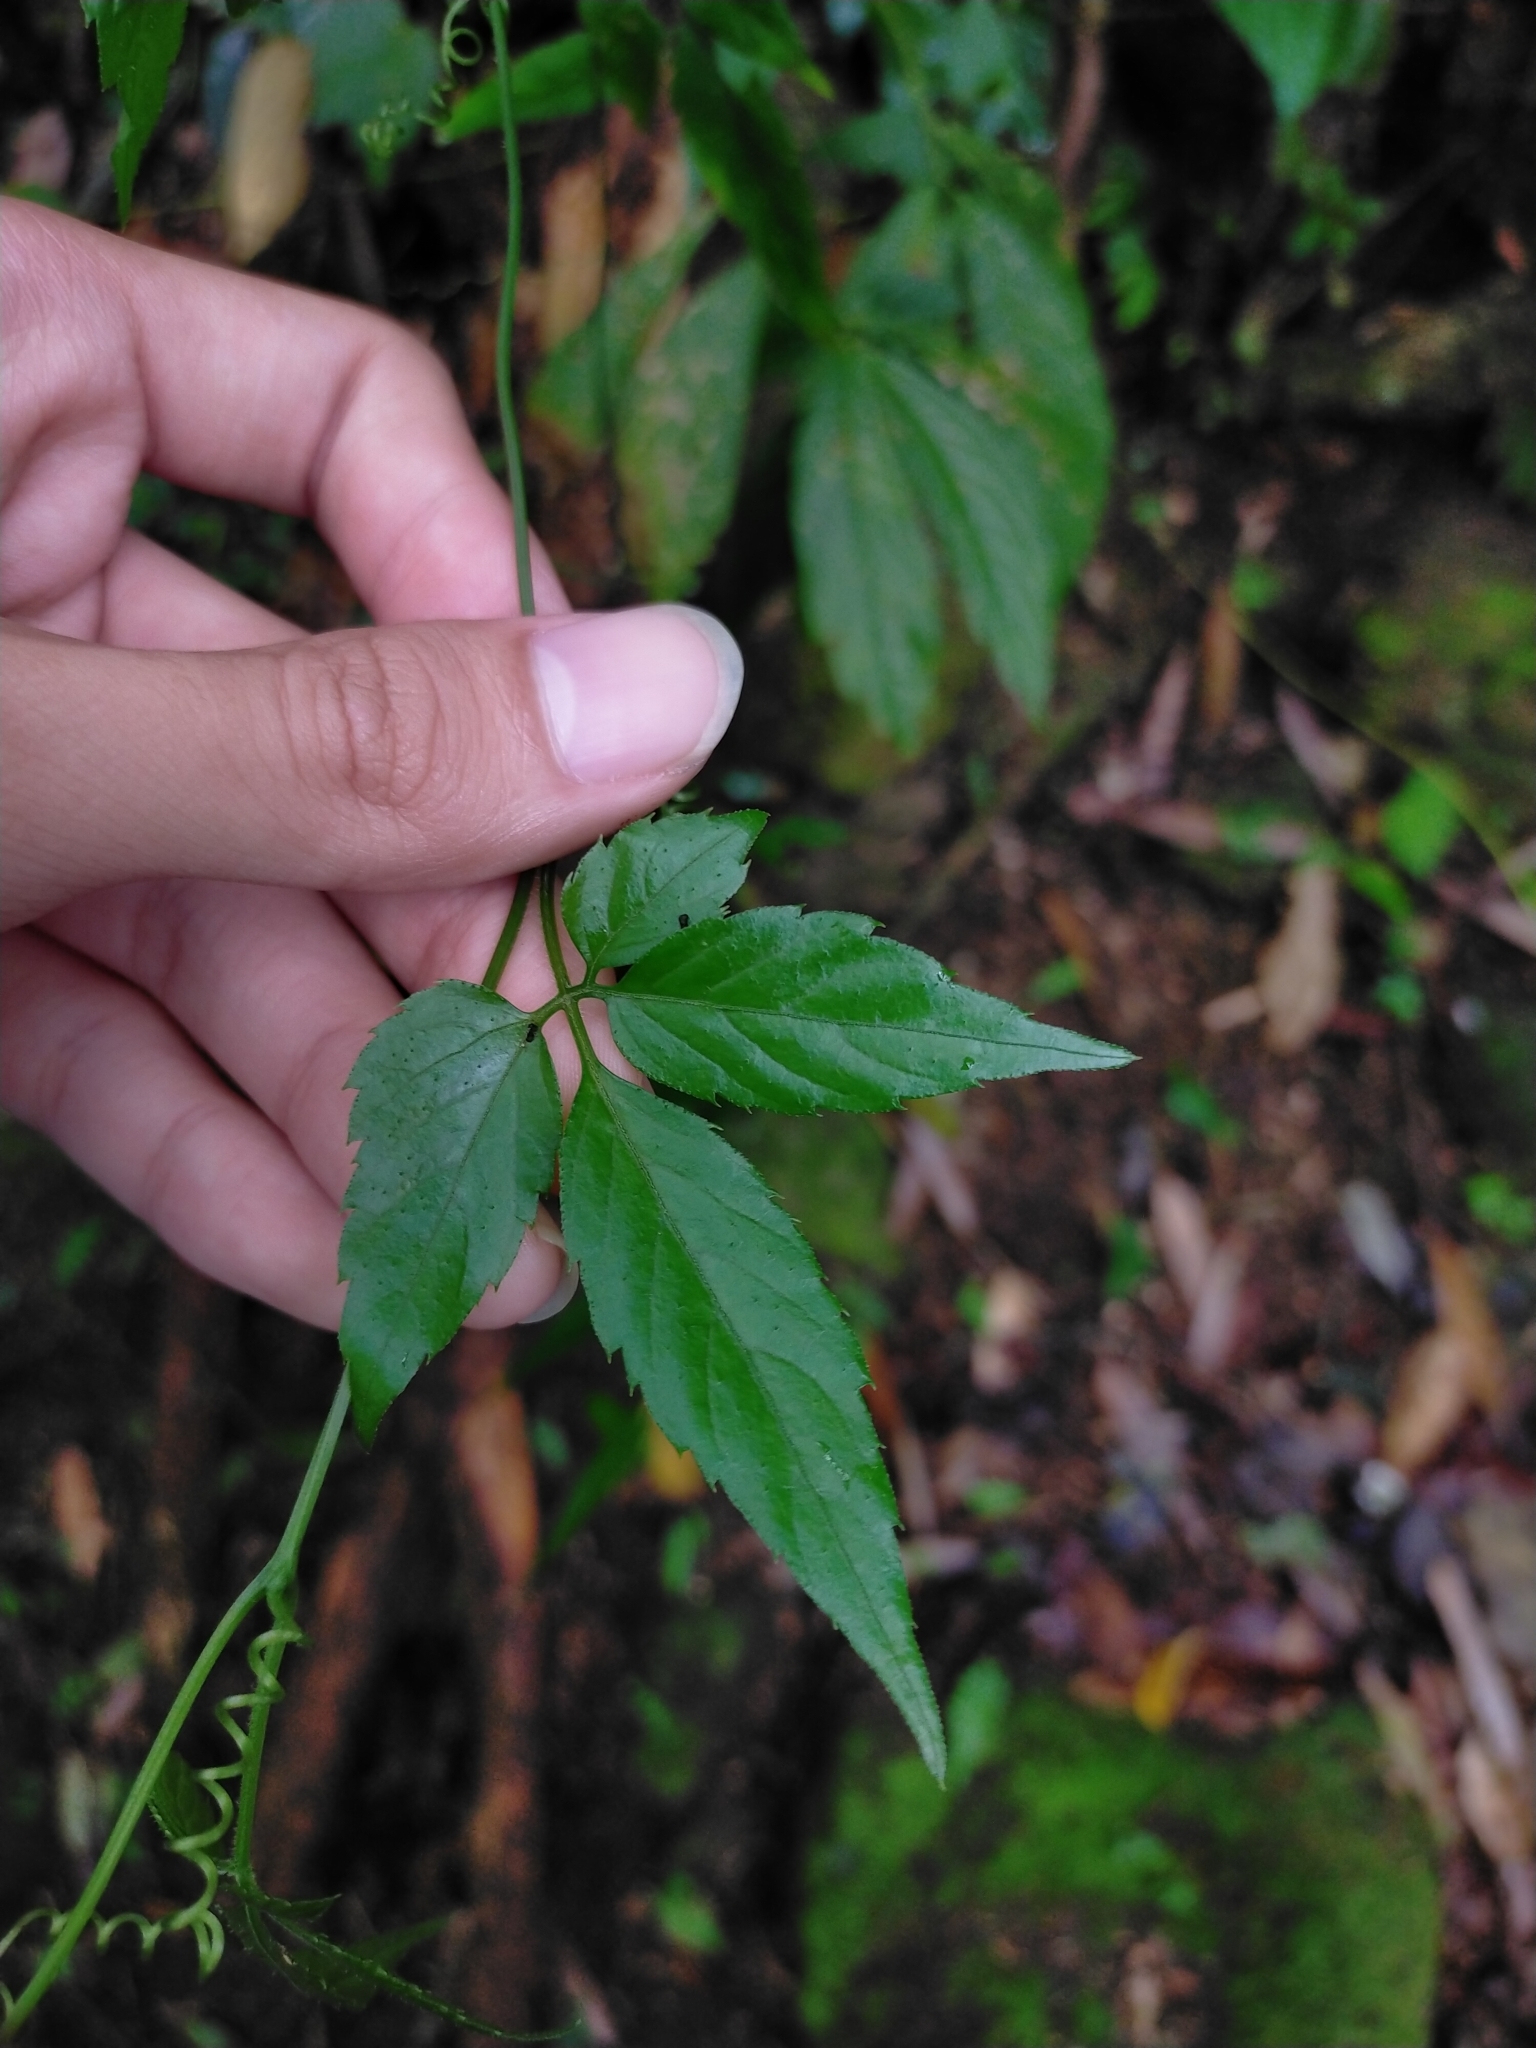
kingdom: Plantae
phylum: Tracheophyta
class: Magnoliopsida
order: Cucurbitales
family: Cucurbitaceae
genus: Gynostemma
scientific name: Gynostemma pentaphyllum
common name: Gynostemma
